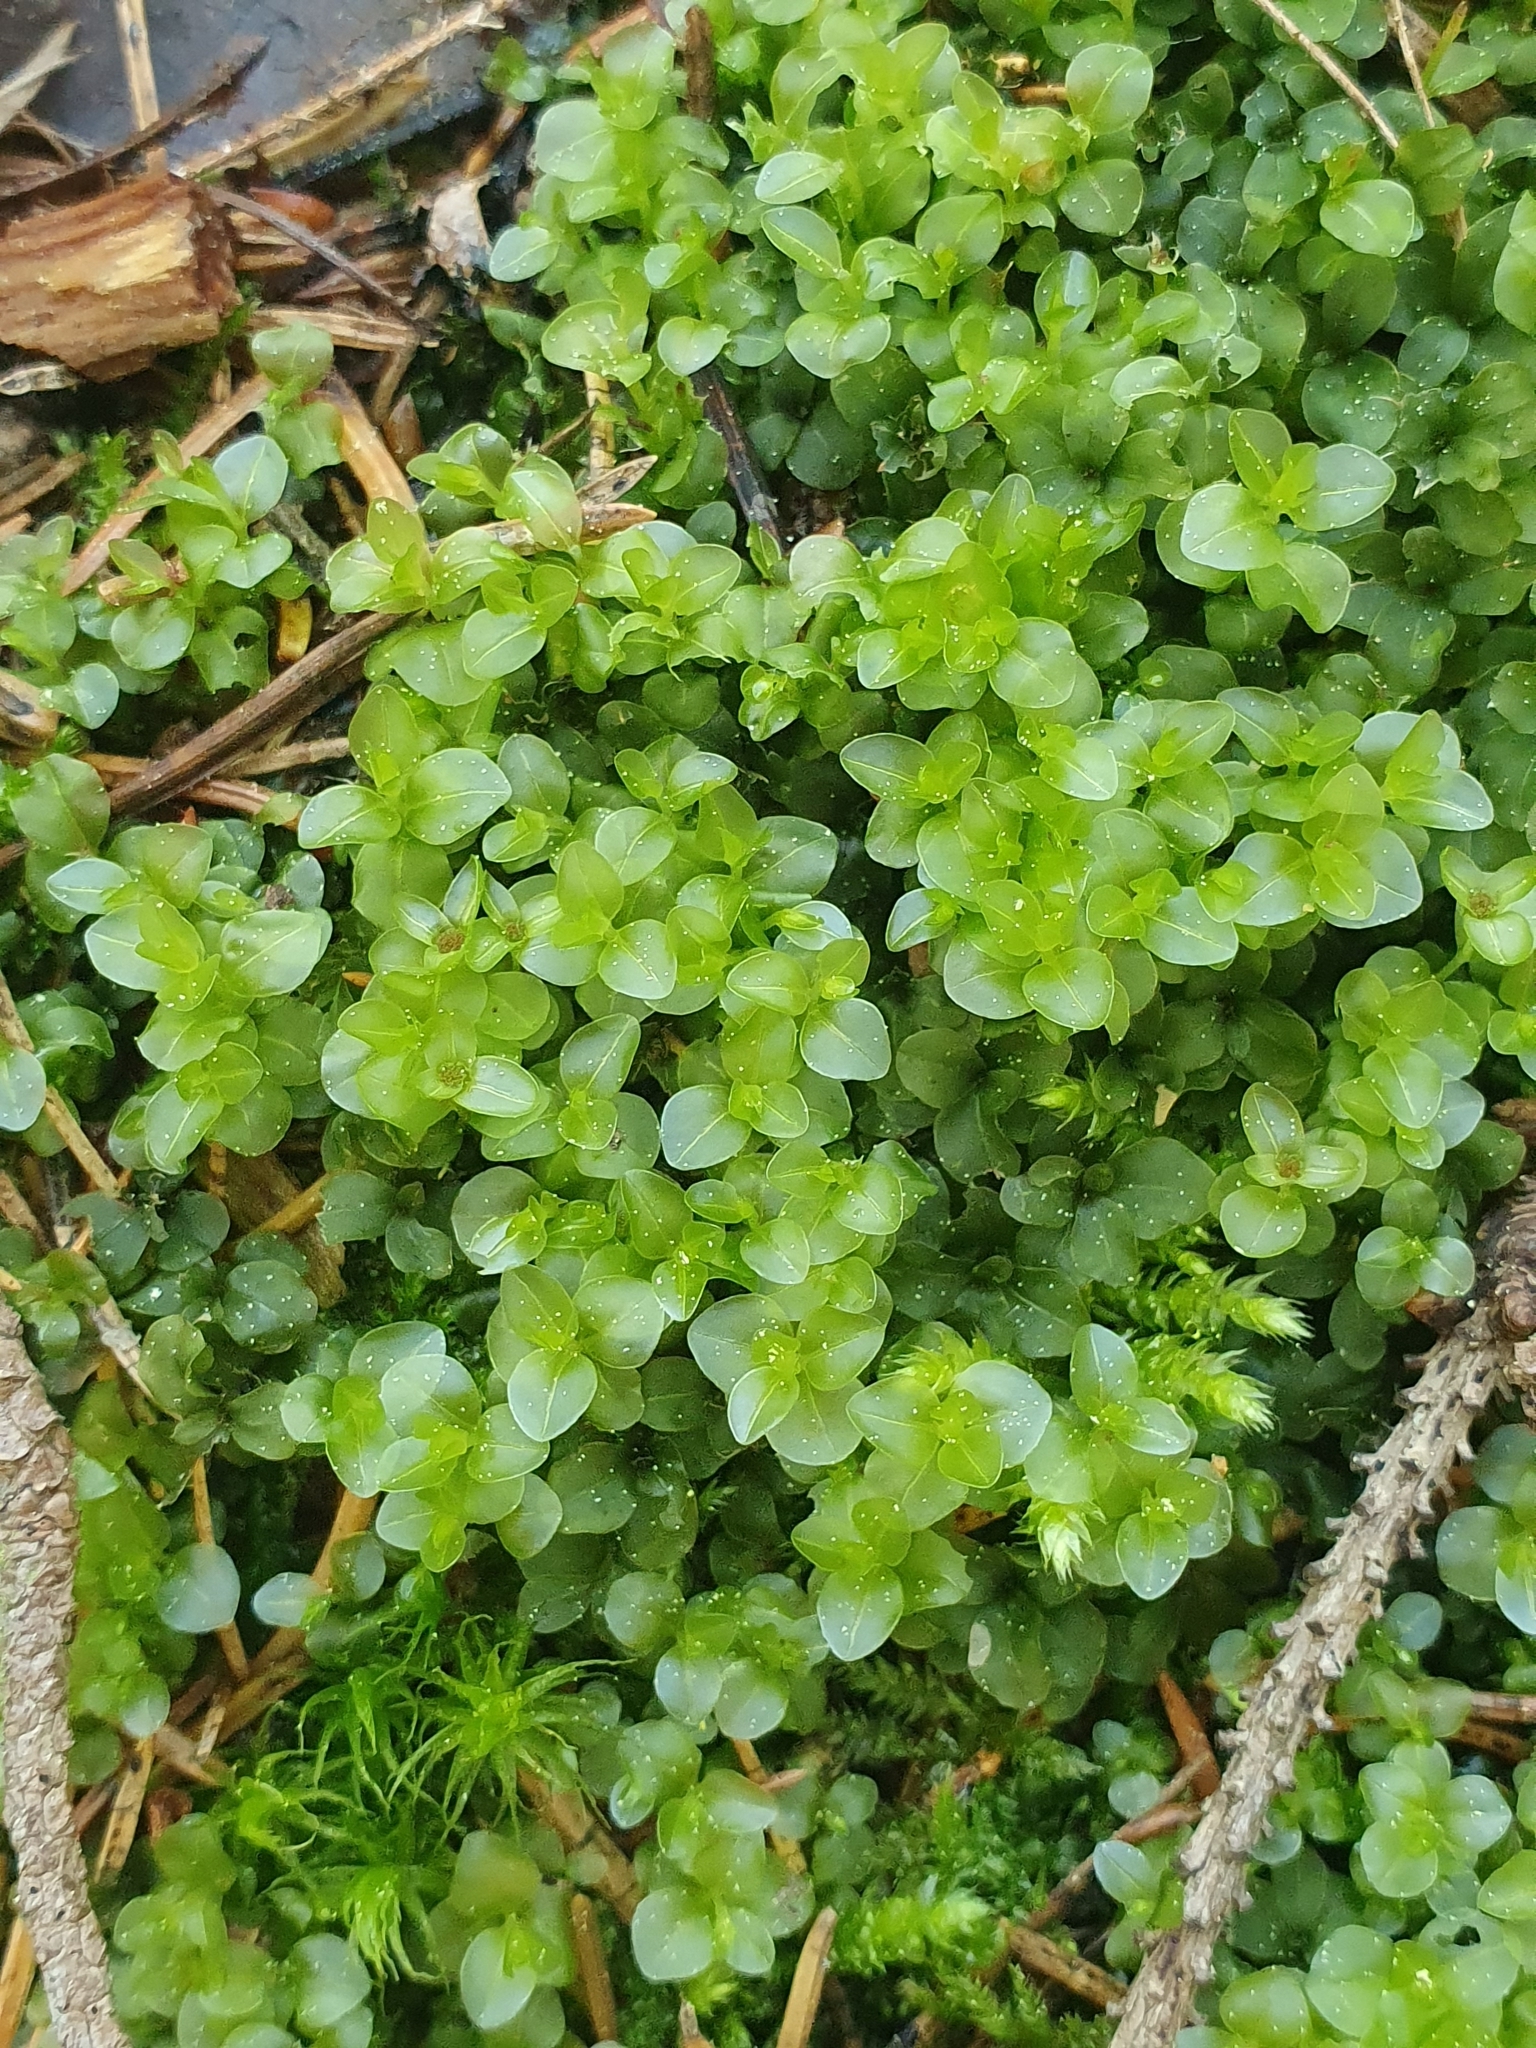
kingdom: Plantae
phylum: Bryophyta
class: Bryopsida
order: Bryales
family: Mniaceae
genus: Rhizomnium
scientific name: Rhizomnium punctatum
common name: Dotted leafy moss
